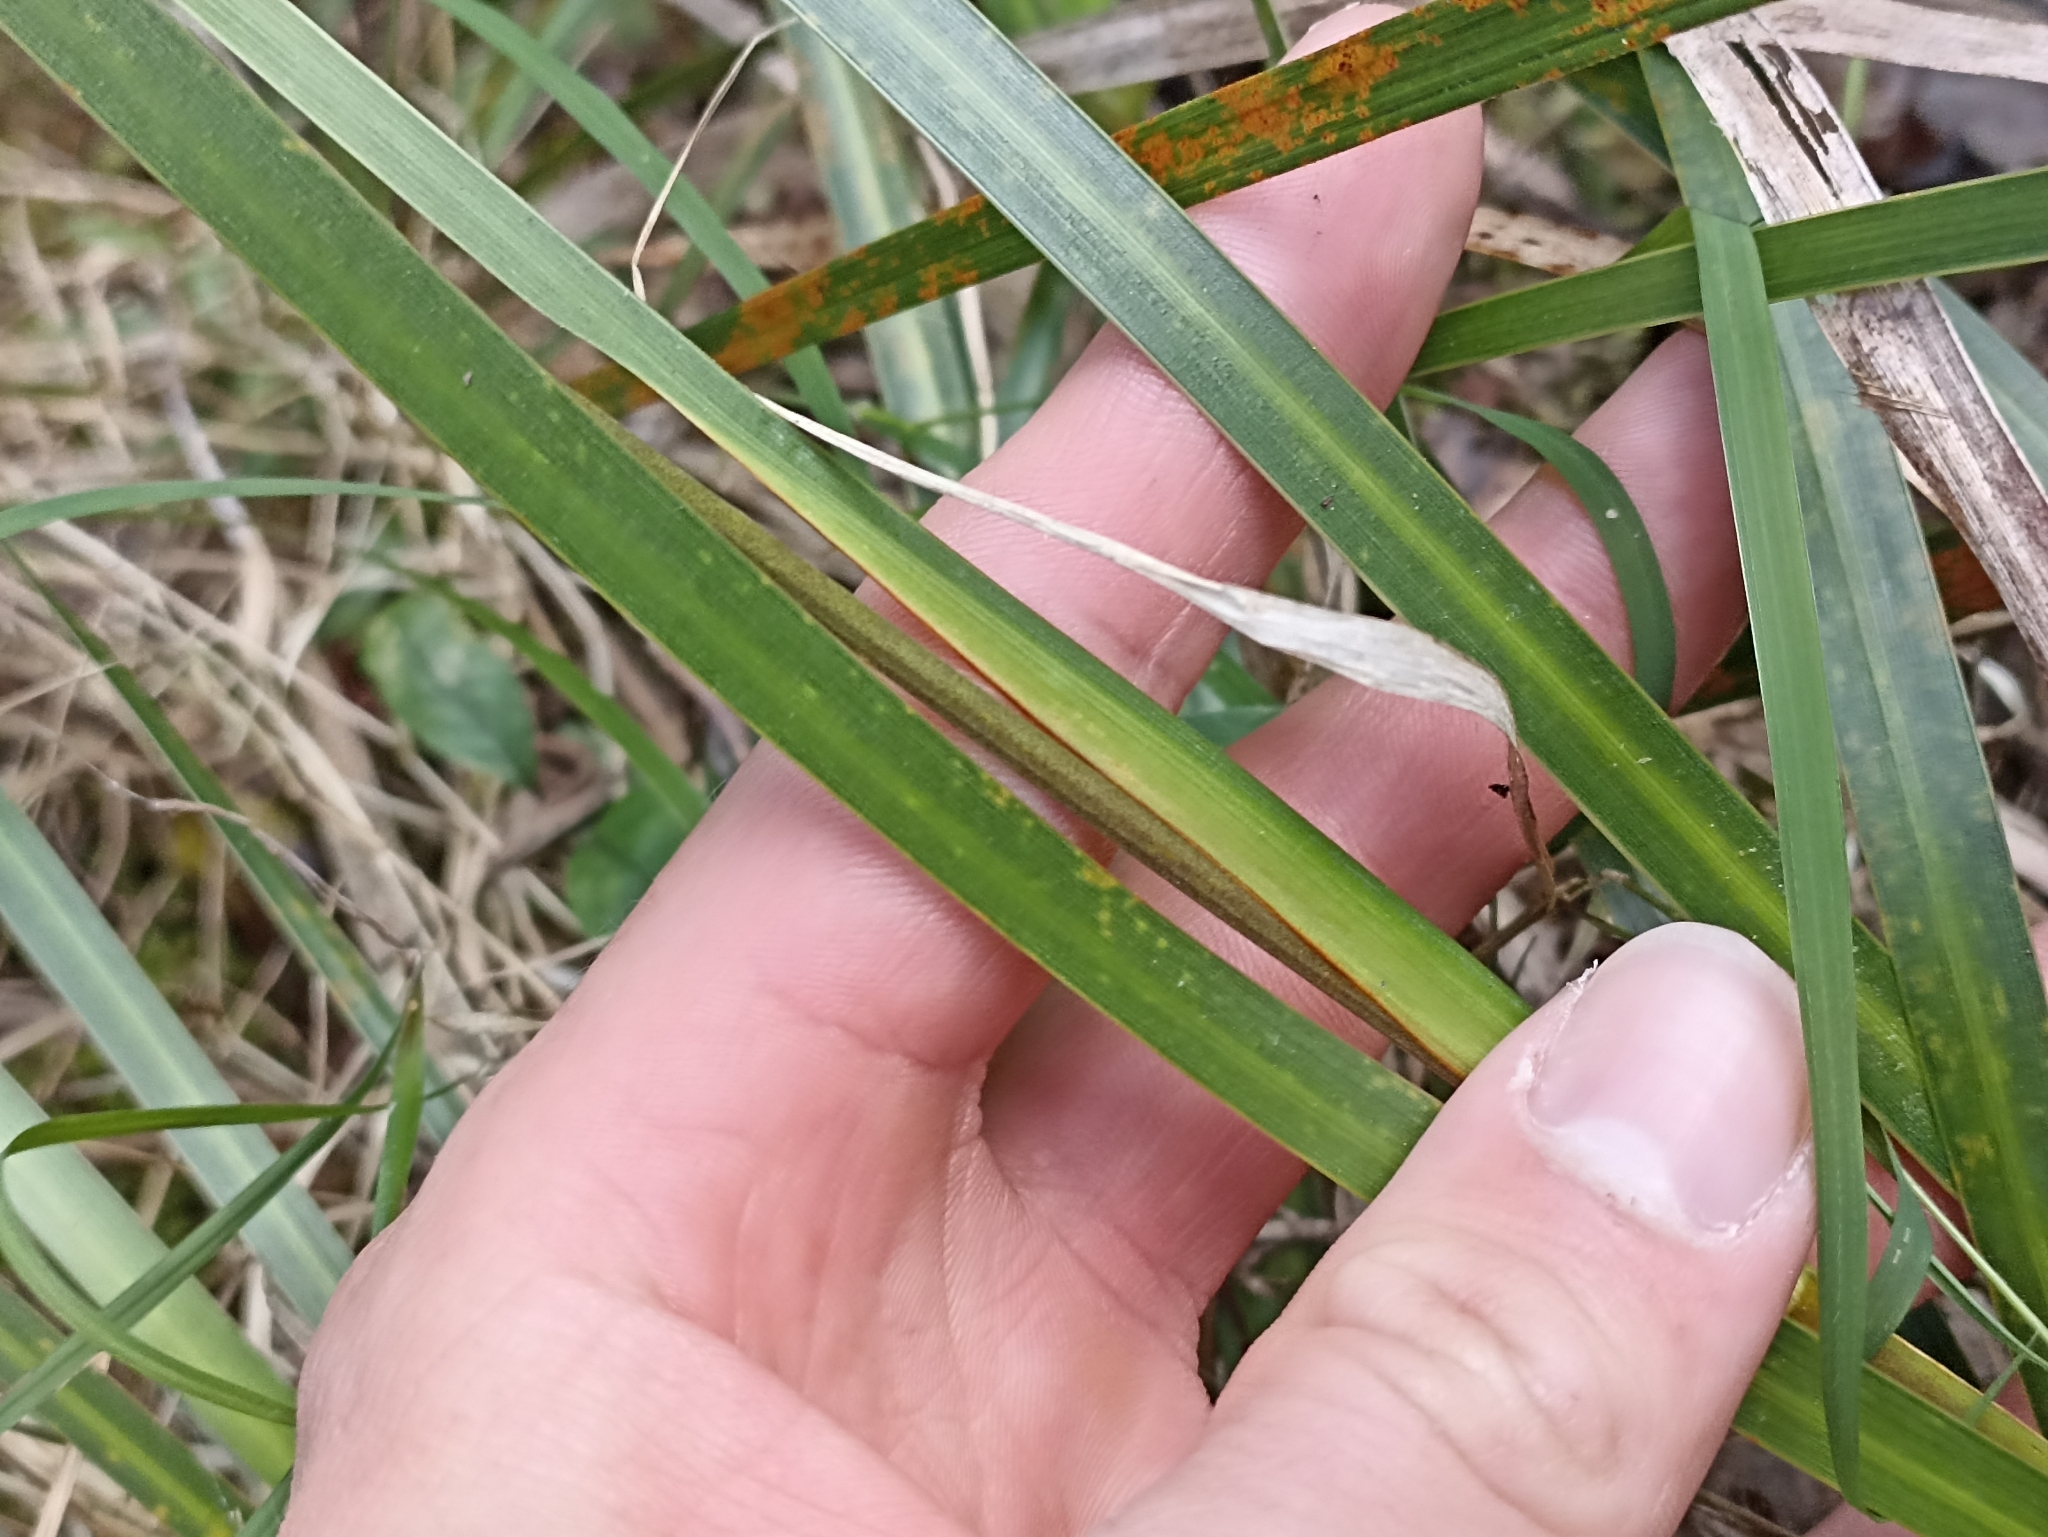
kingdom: Plantae
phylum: Tracheophyta
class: Liliopsida
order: Asparagales
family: Iridaceae
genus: Libertia
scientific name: Libertia grandiflora
